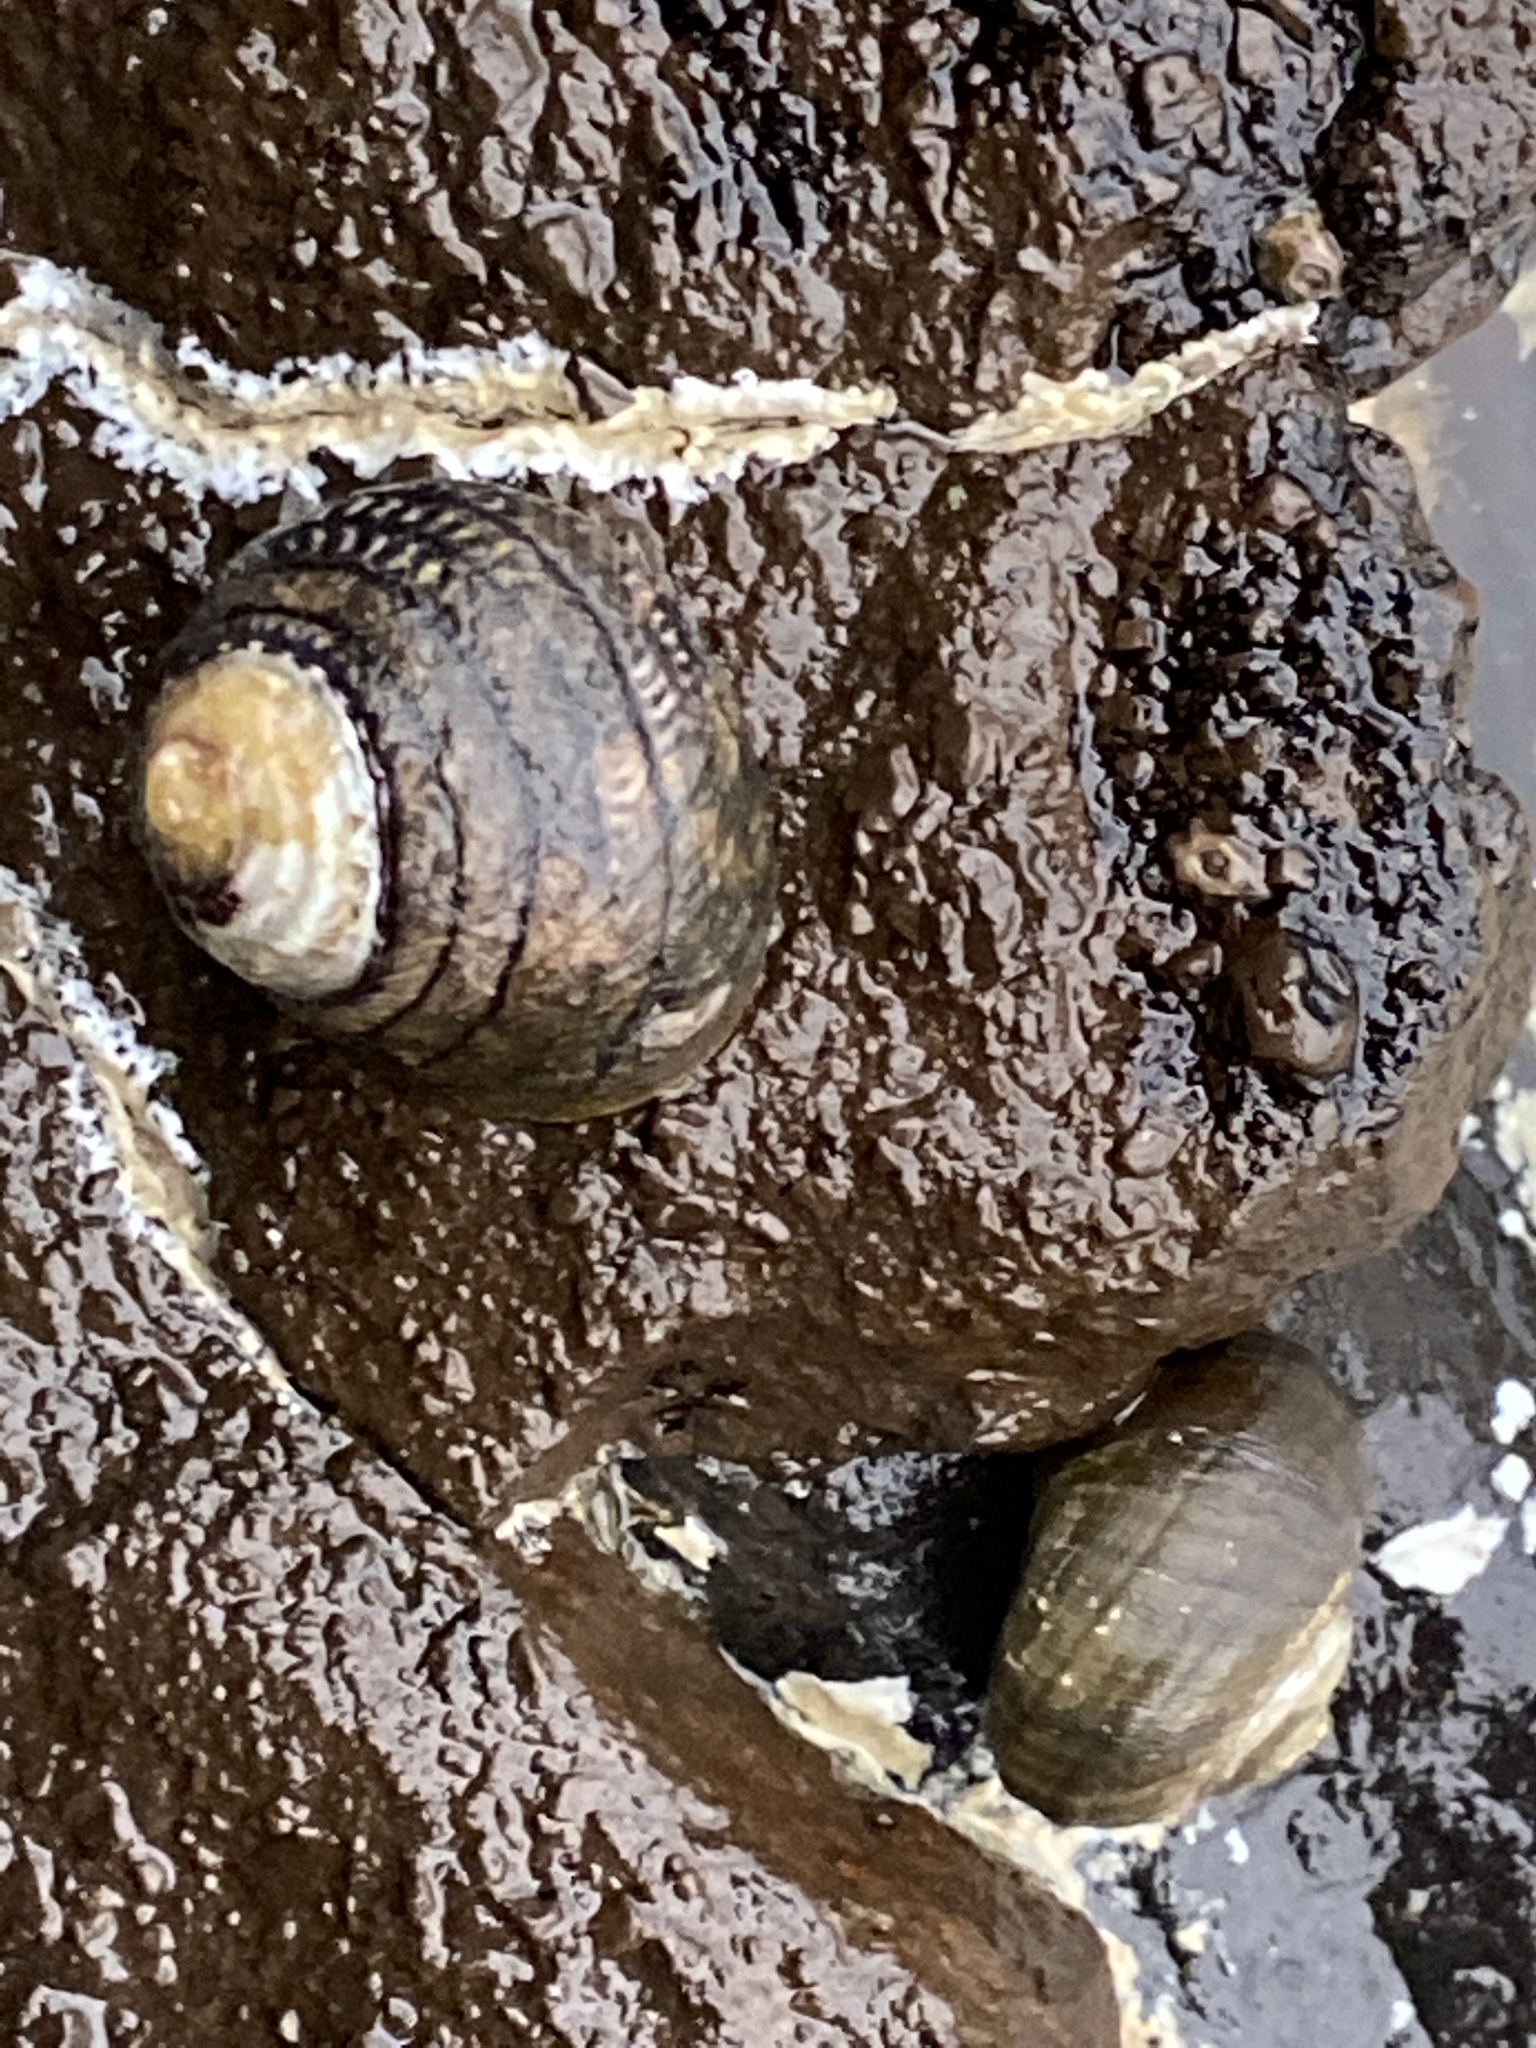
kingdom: Animalia
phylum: Mollusca
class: Gastropoda
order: Trochida
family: Trochidae
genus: Diloma
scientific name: Diloma aethiops
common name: Scorched monodont
